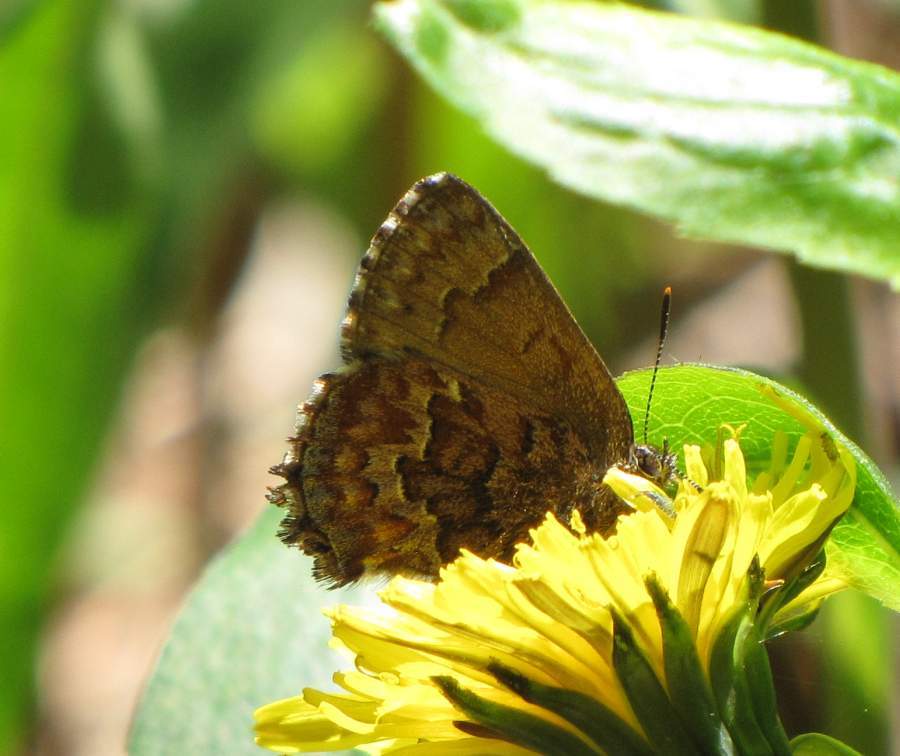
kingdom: Animalia
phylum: Arthropoda
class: Insecta
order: Lepidoptera
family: Lycaenidae
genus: Incisalia
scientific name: Incisalia niphon
